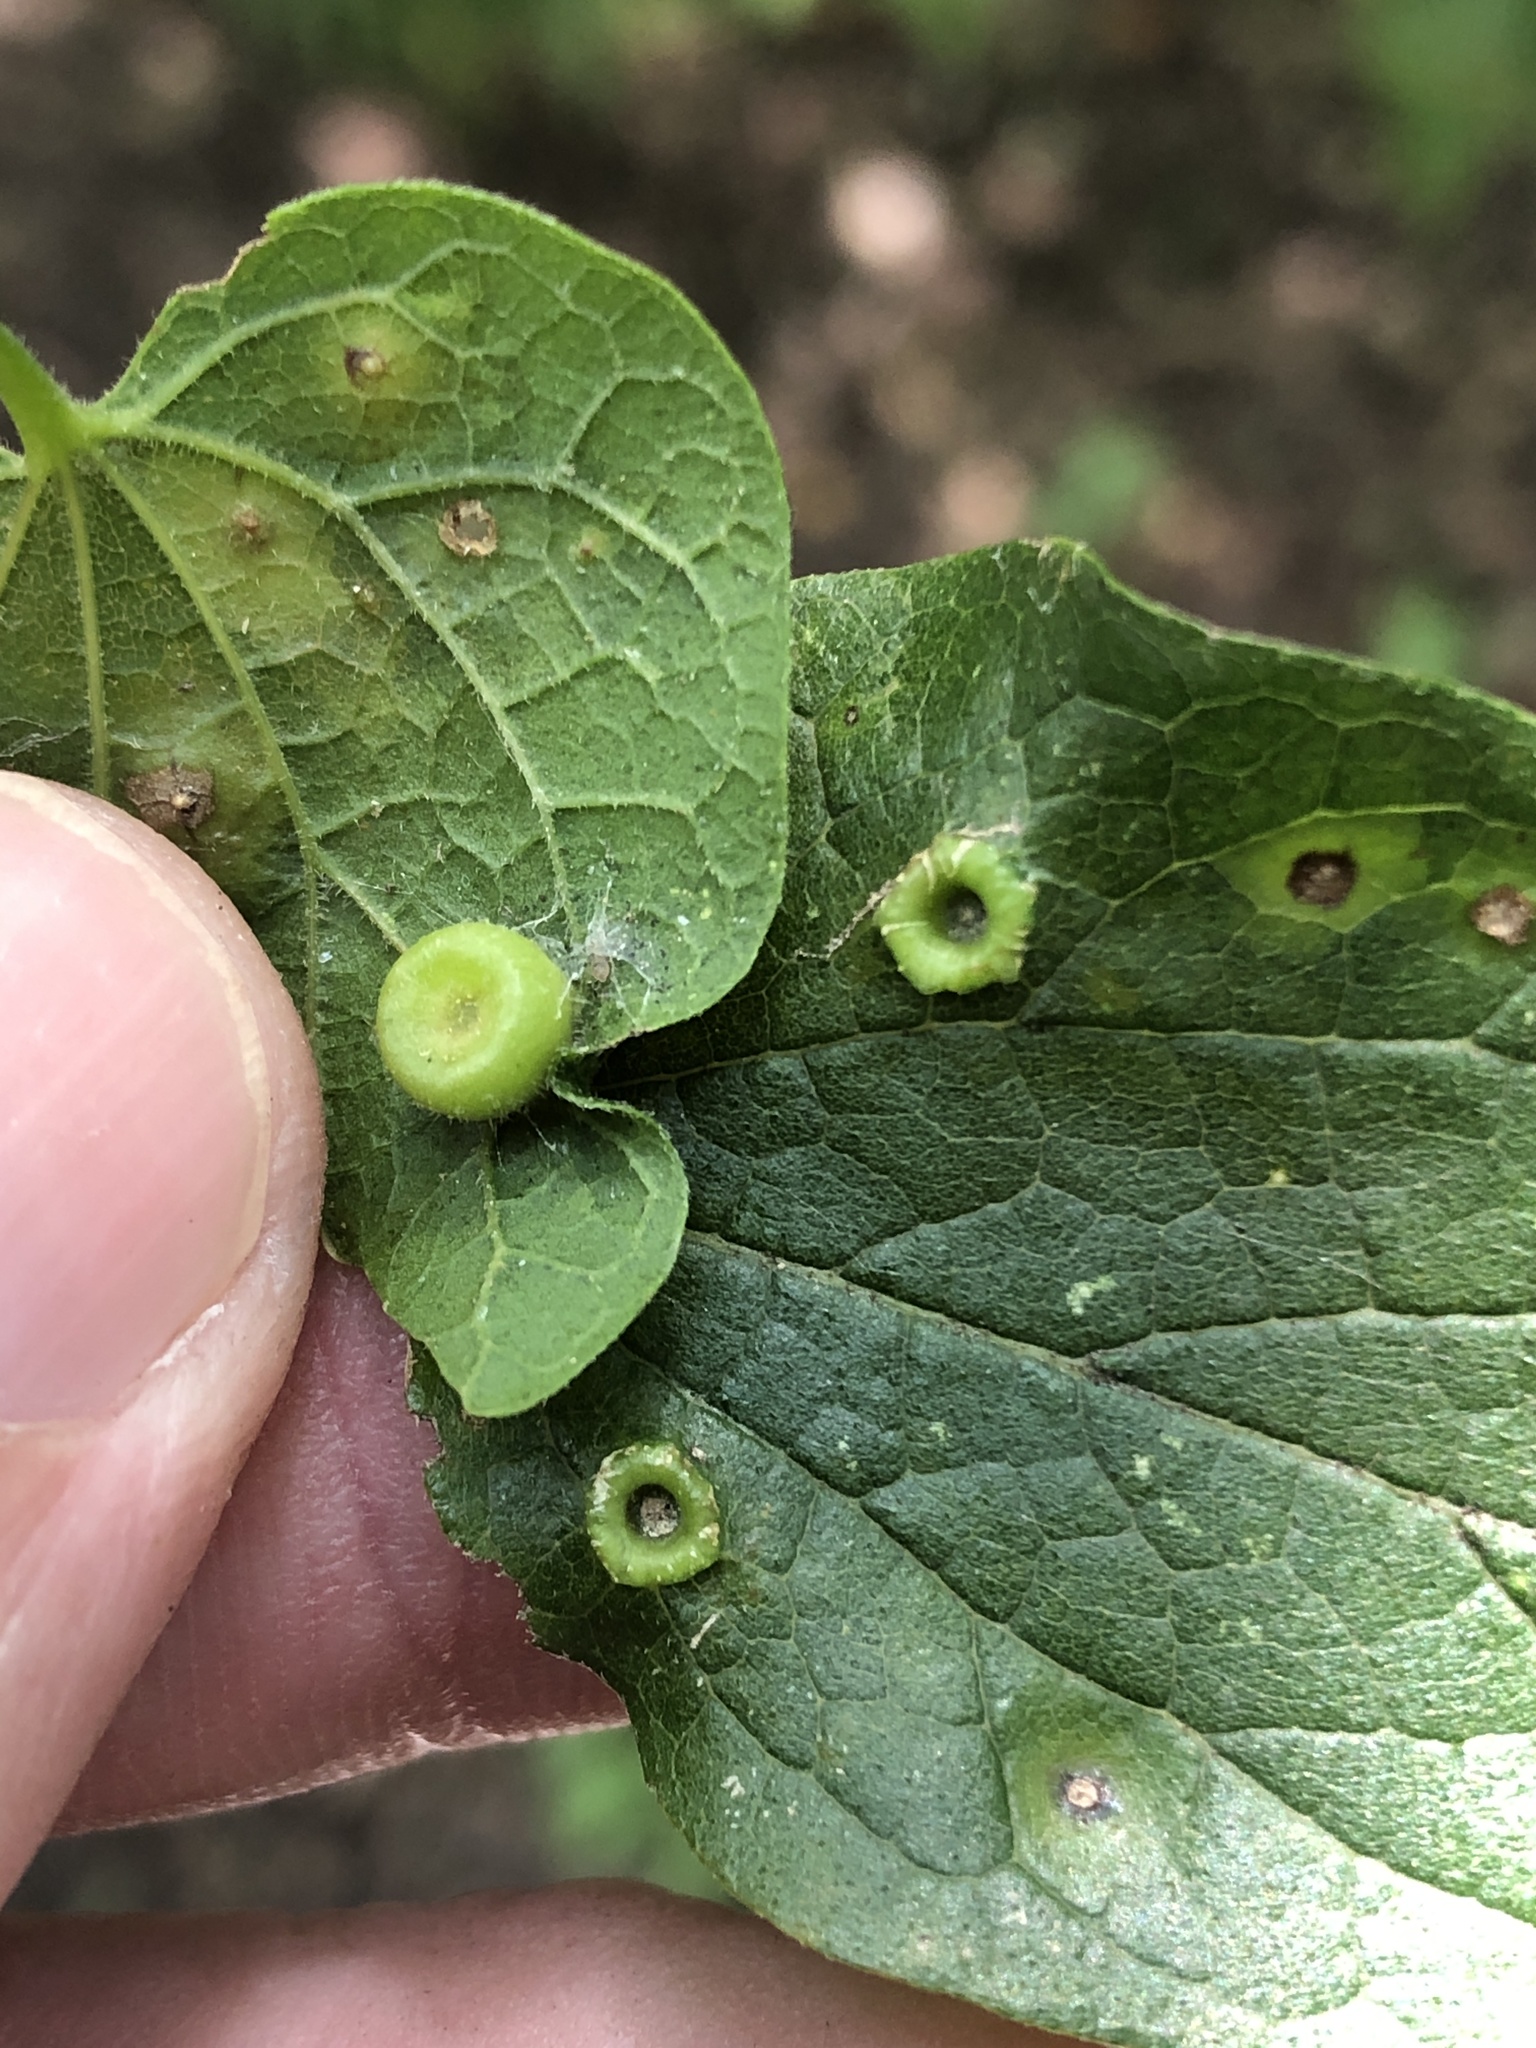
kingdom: Animalia
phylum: Arthropoda
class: Insecta
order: Hemiptera
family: Aphalaridae
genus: Pachypsylla
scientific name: Pachypsylla celtidismamma
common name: Hackberry nipplegall psyllid
